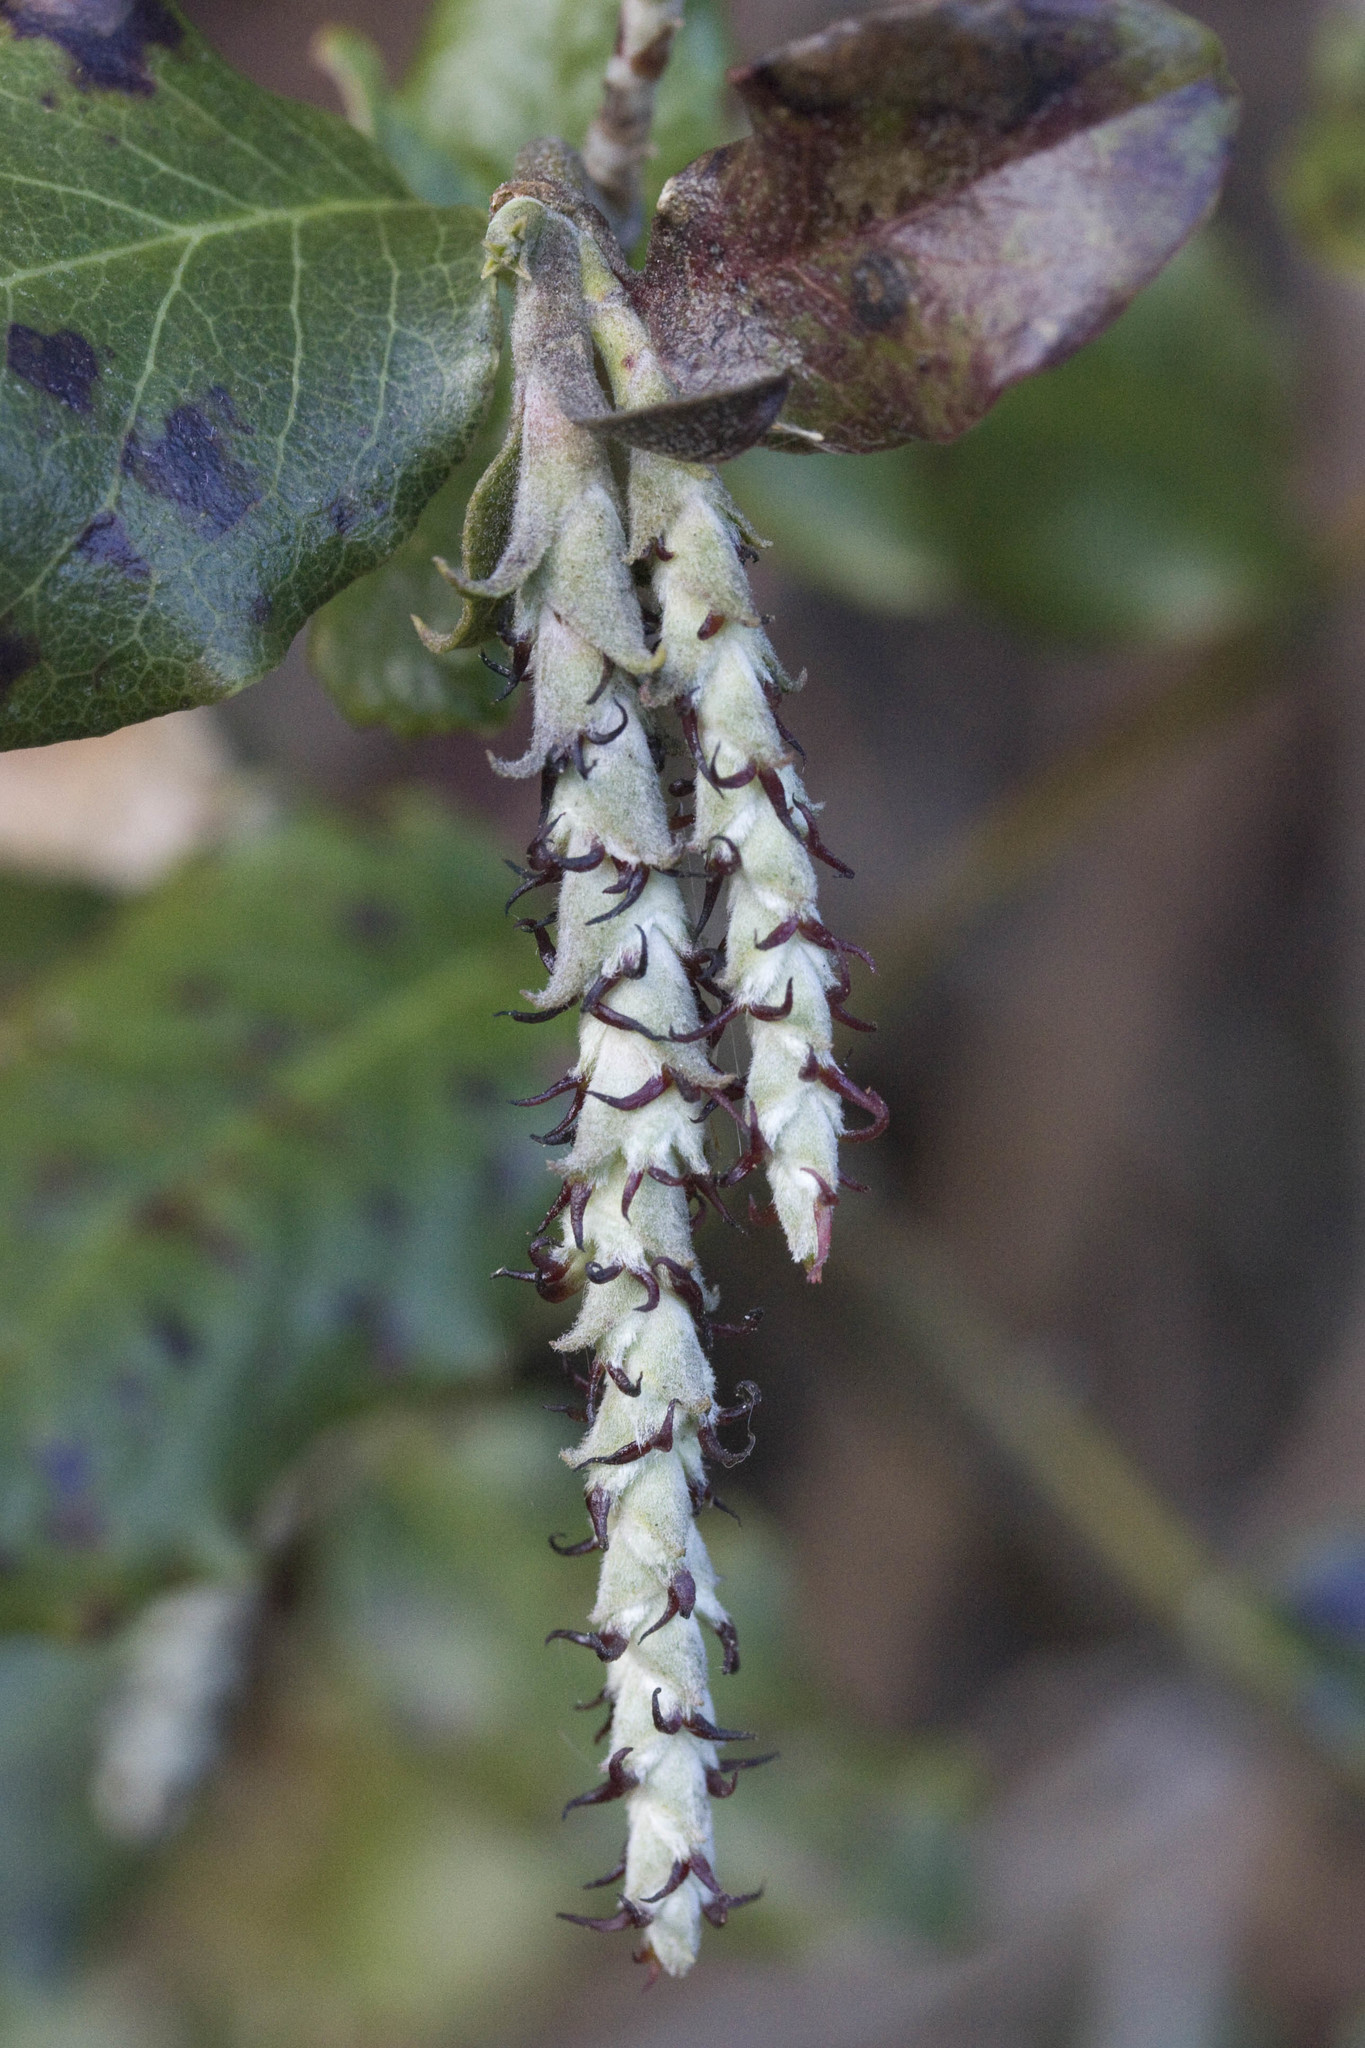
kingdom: Plantae
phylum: Tracheophyta
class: Magnoliopsida
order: Garryales
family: Garryaceae
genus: Garrya
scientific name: Garrya elliptica
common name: Silk-tassel
